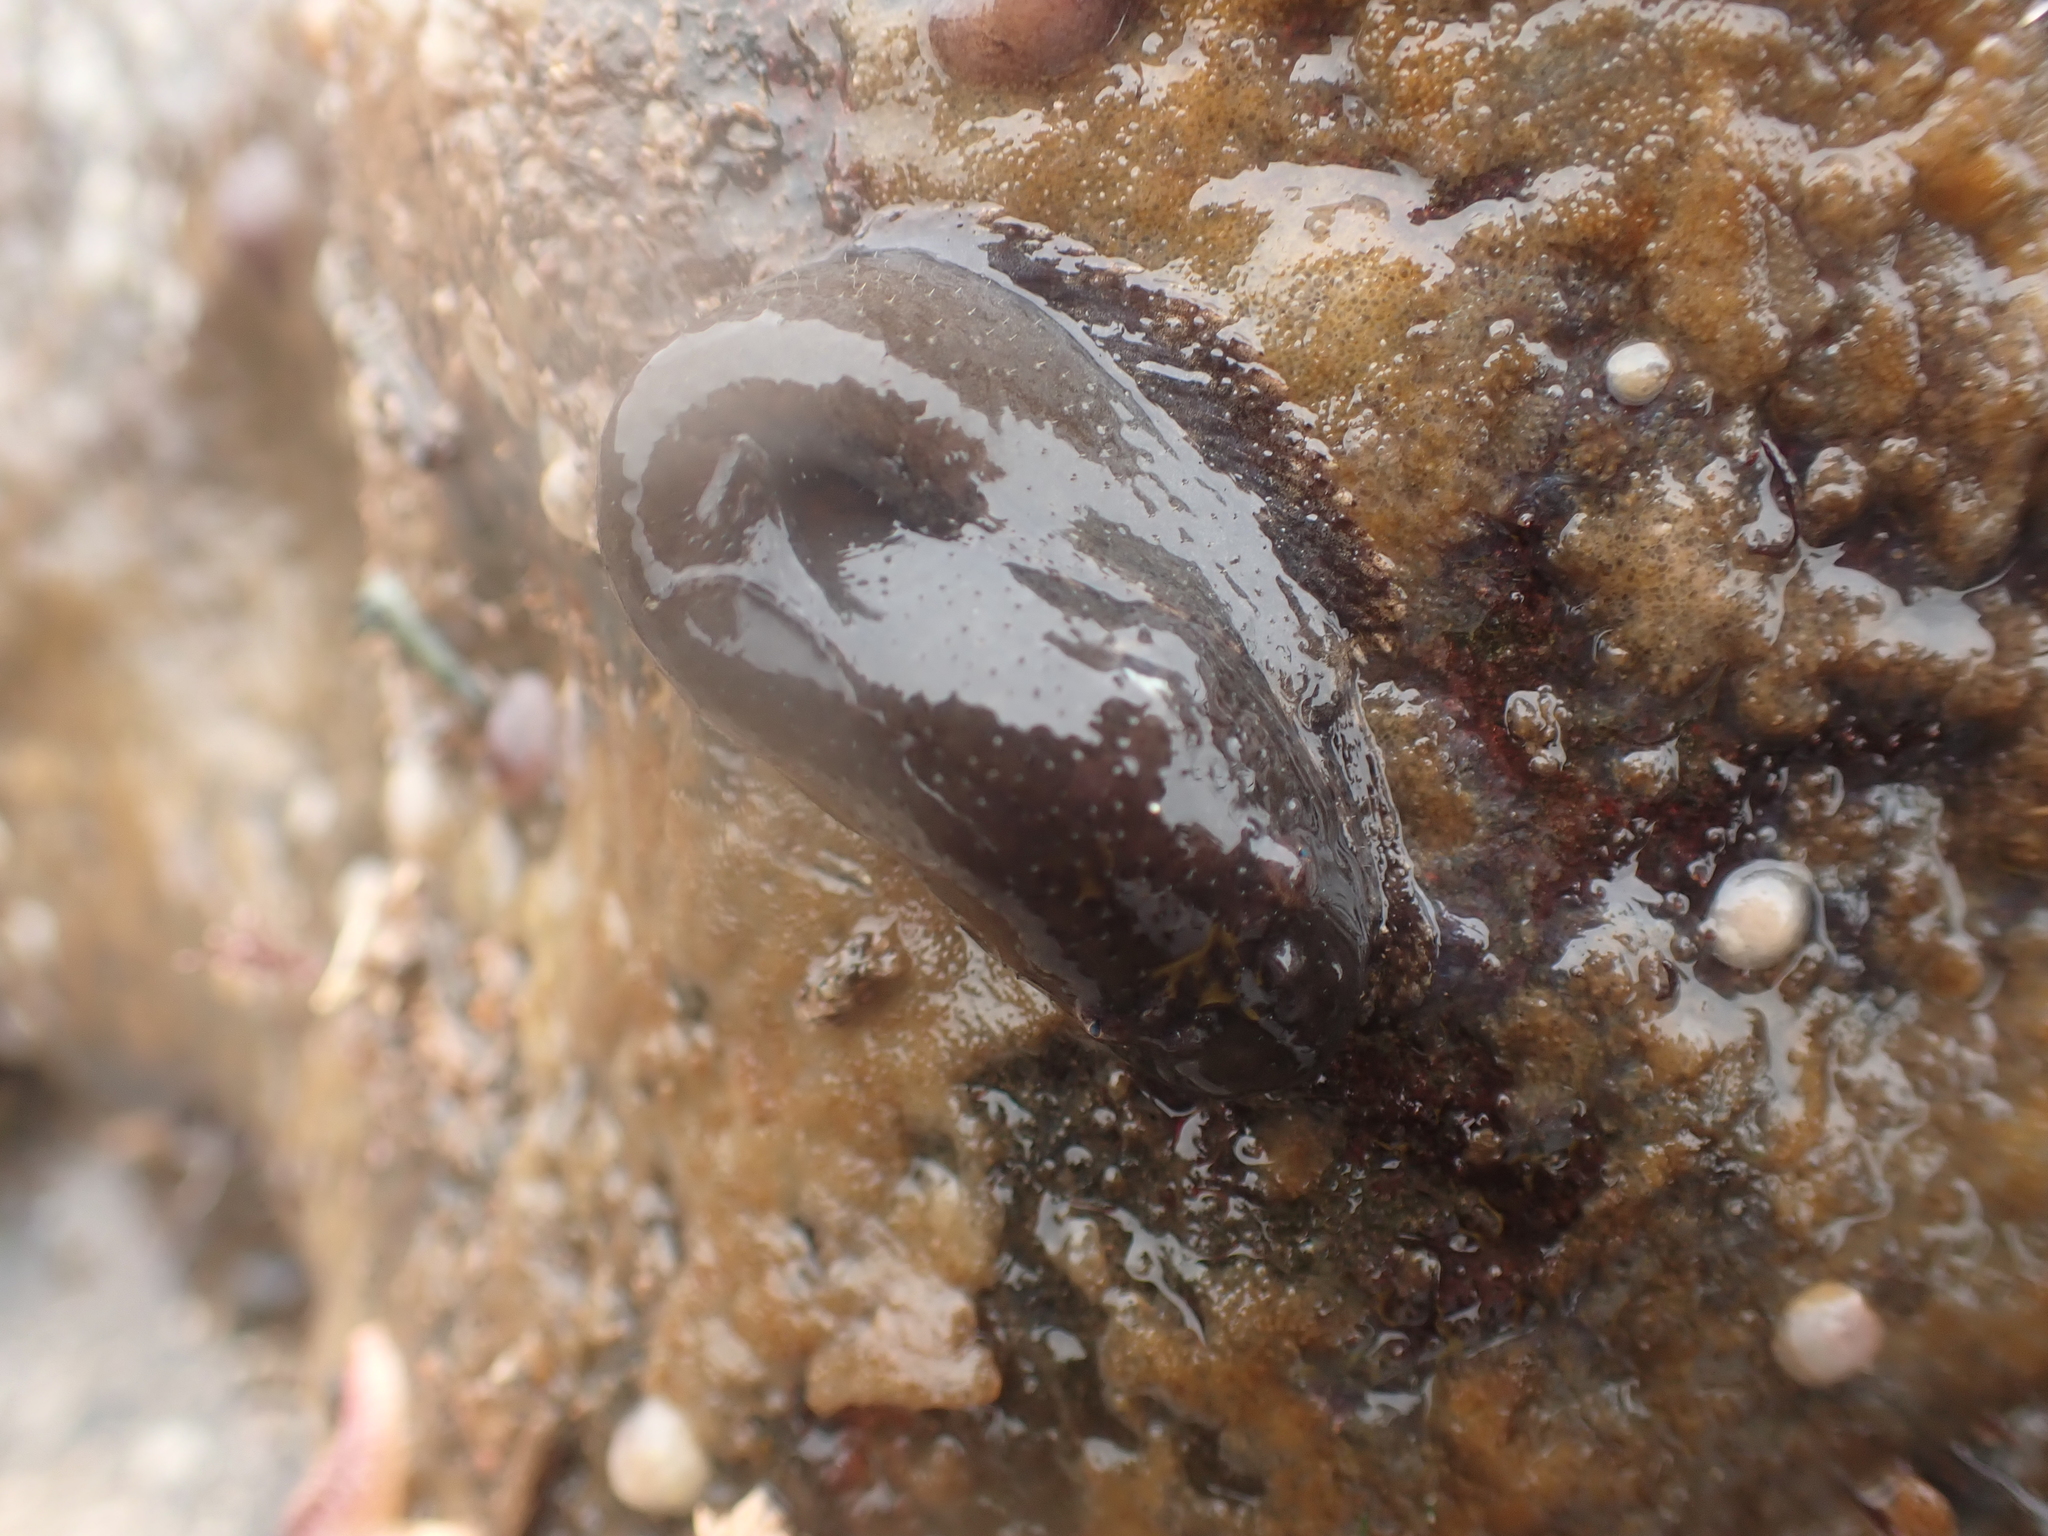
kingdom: Animalia
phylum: Chordata
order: Scorpaeniformes
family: Liparidae
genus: Liparis
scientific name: Liparis atlanticus
